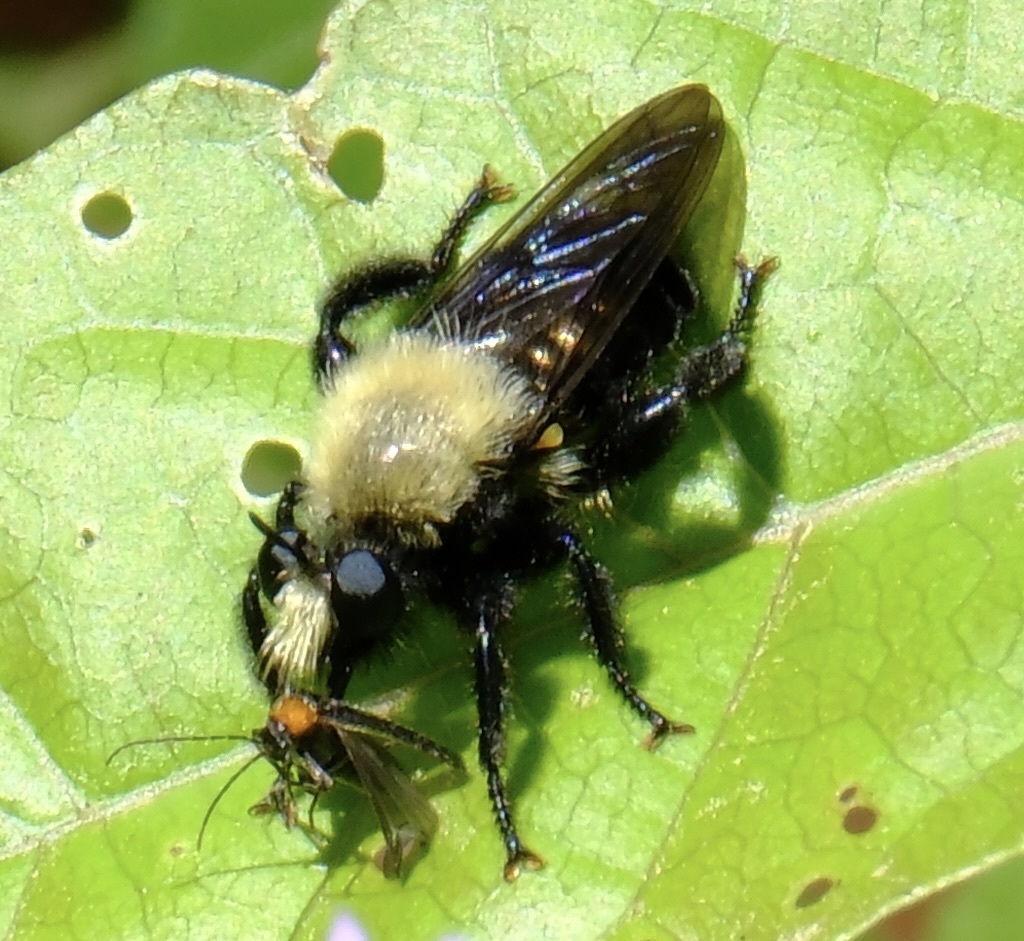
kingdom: Animalia
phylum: Arthropoda
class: Insecta
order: Diptera
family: Asilidae
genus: Laphria
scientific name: Laphria flavicollis
